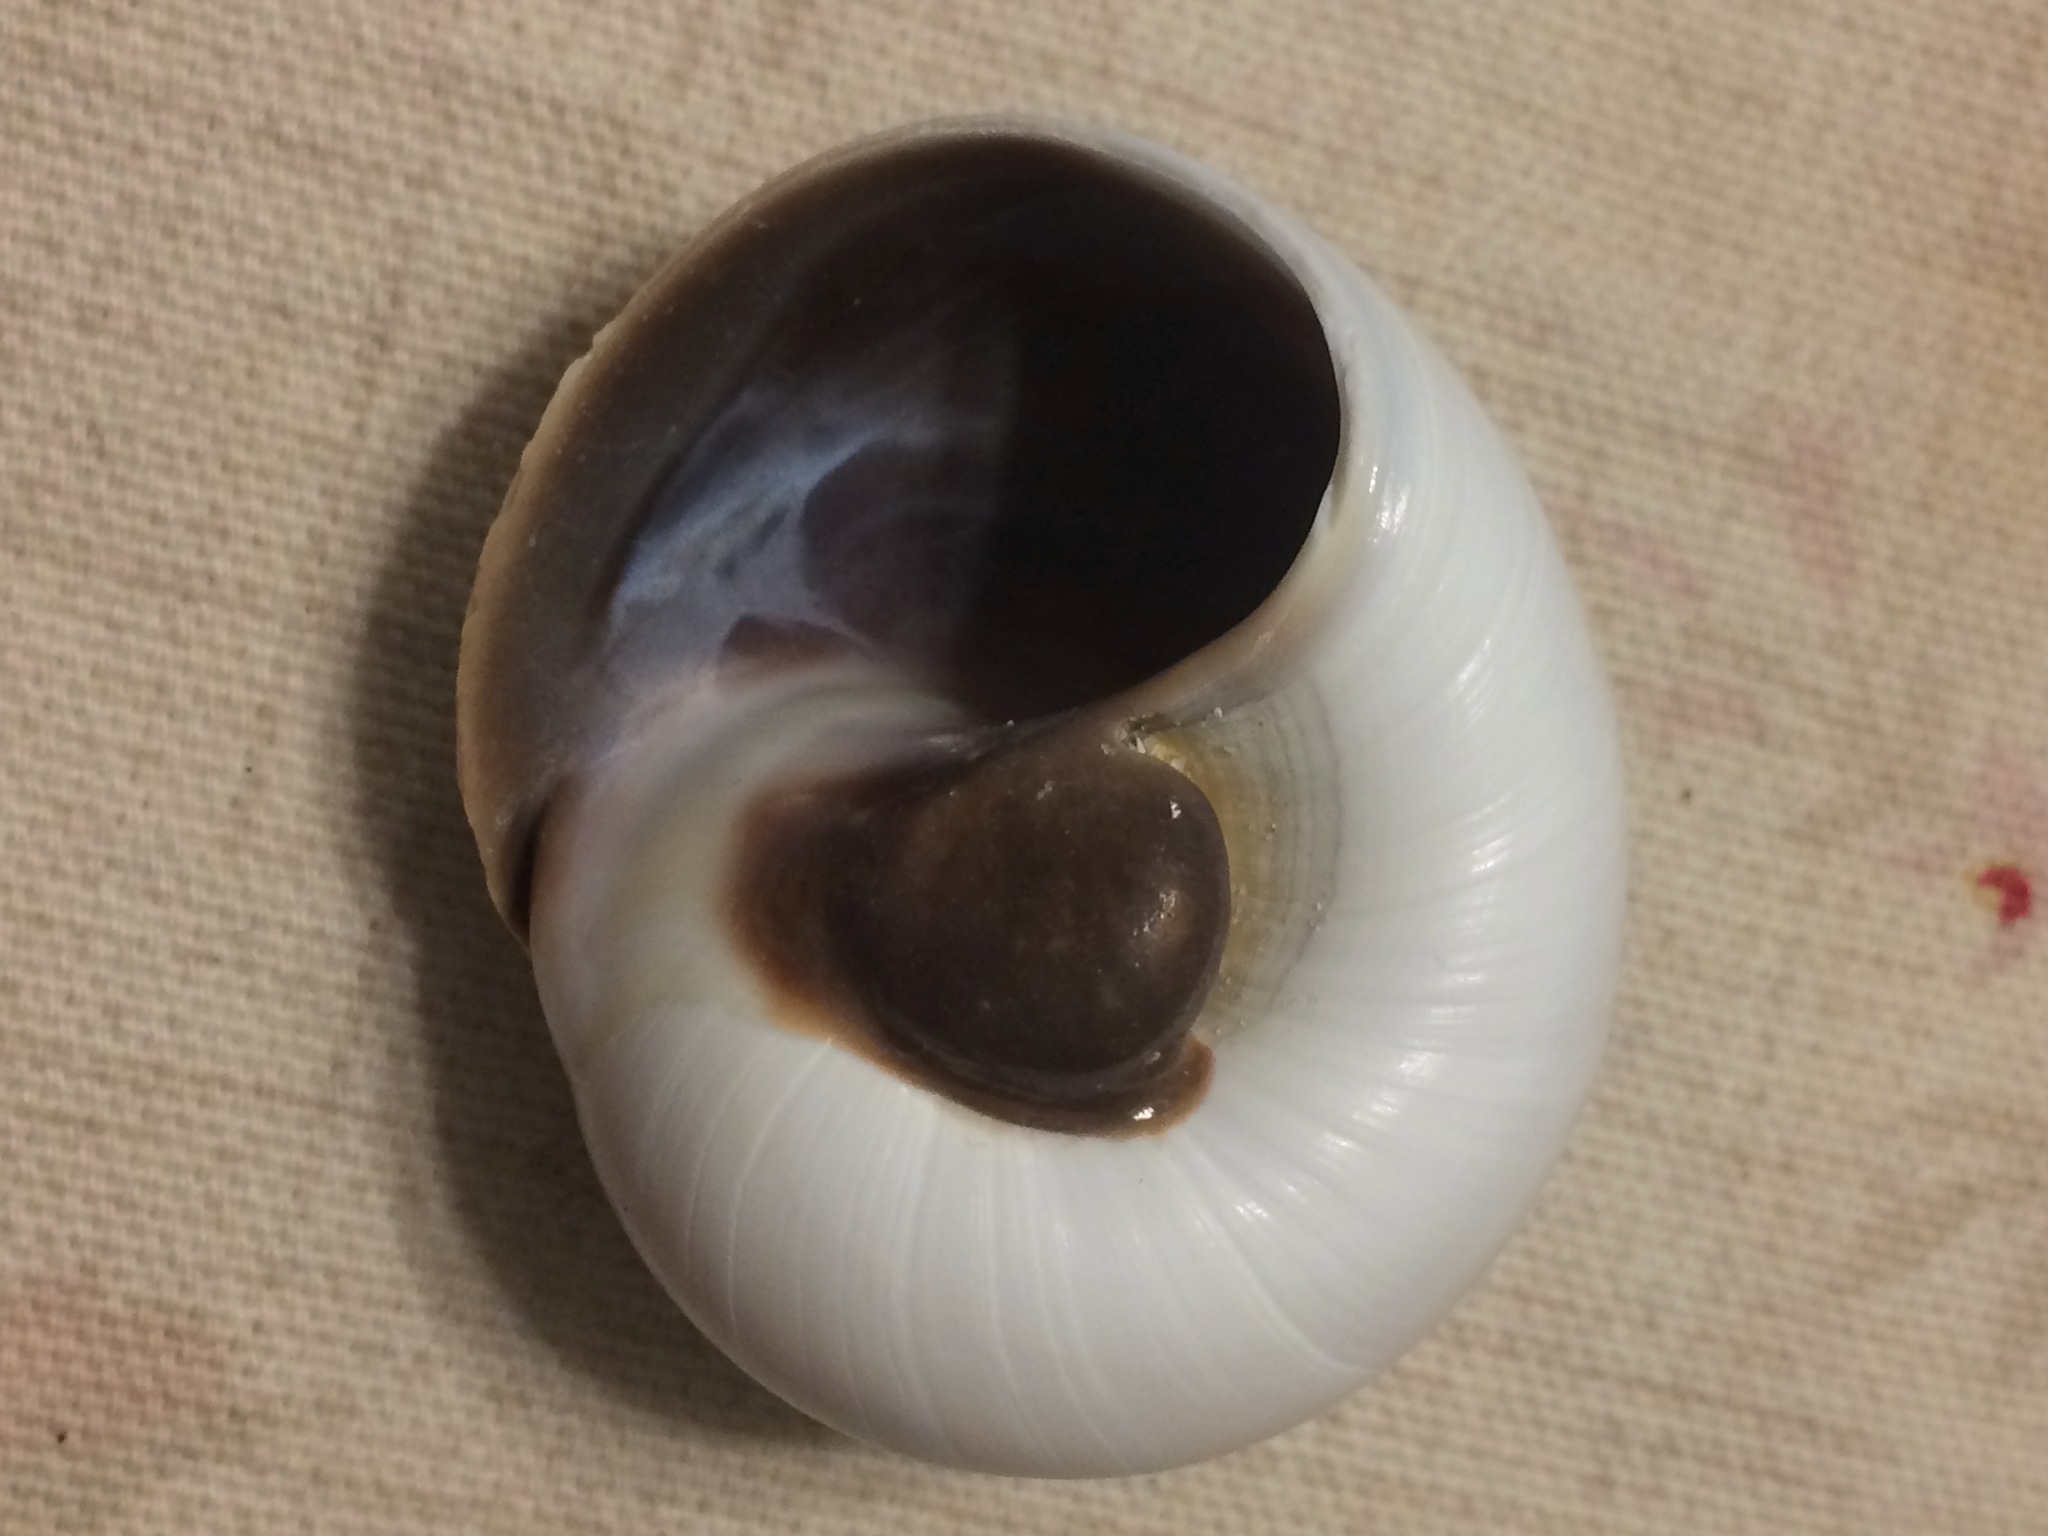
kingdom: Animalia
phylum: Mollusca
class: Gastropoda
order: Littorinimorpha
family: Naticidae
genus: Neverita
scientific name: Neverita duplicata
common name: Lobed moonsnail
